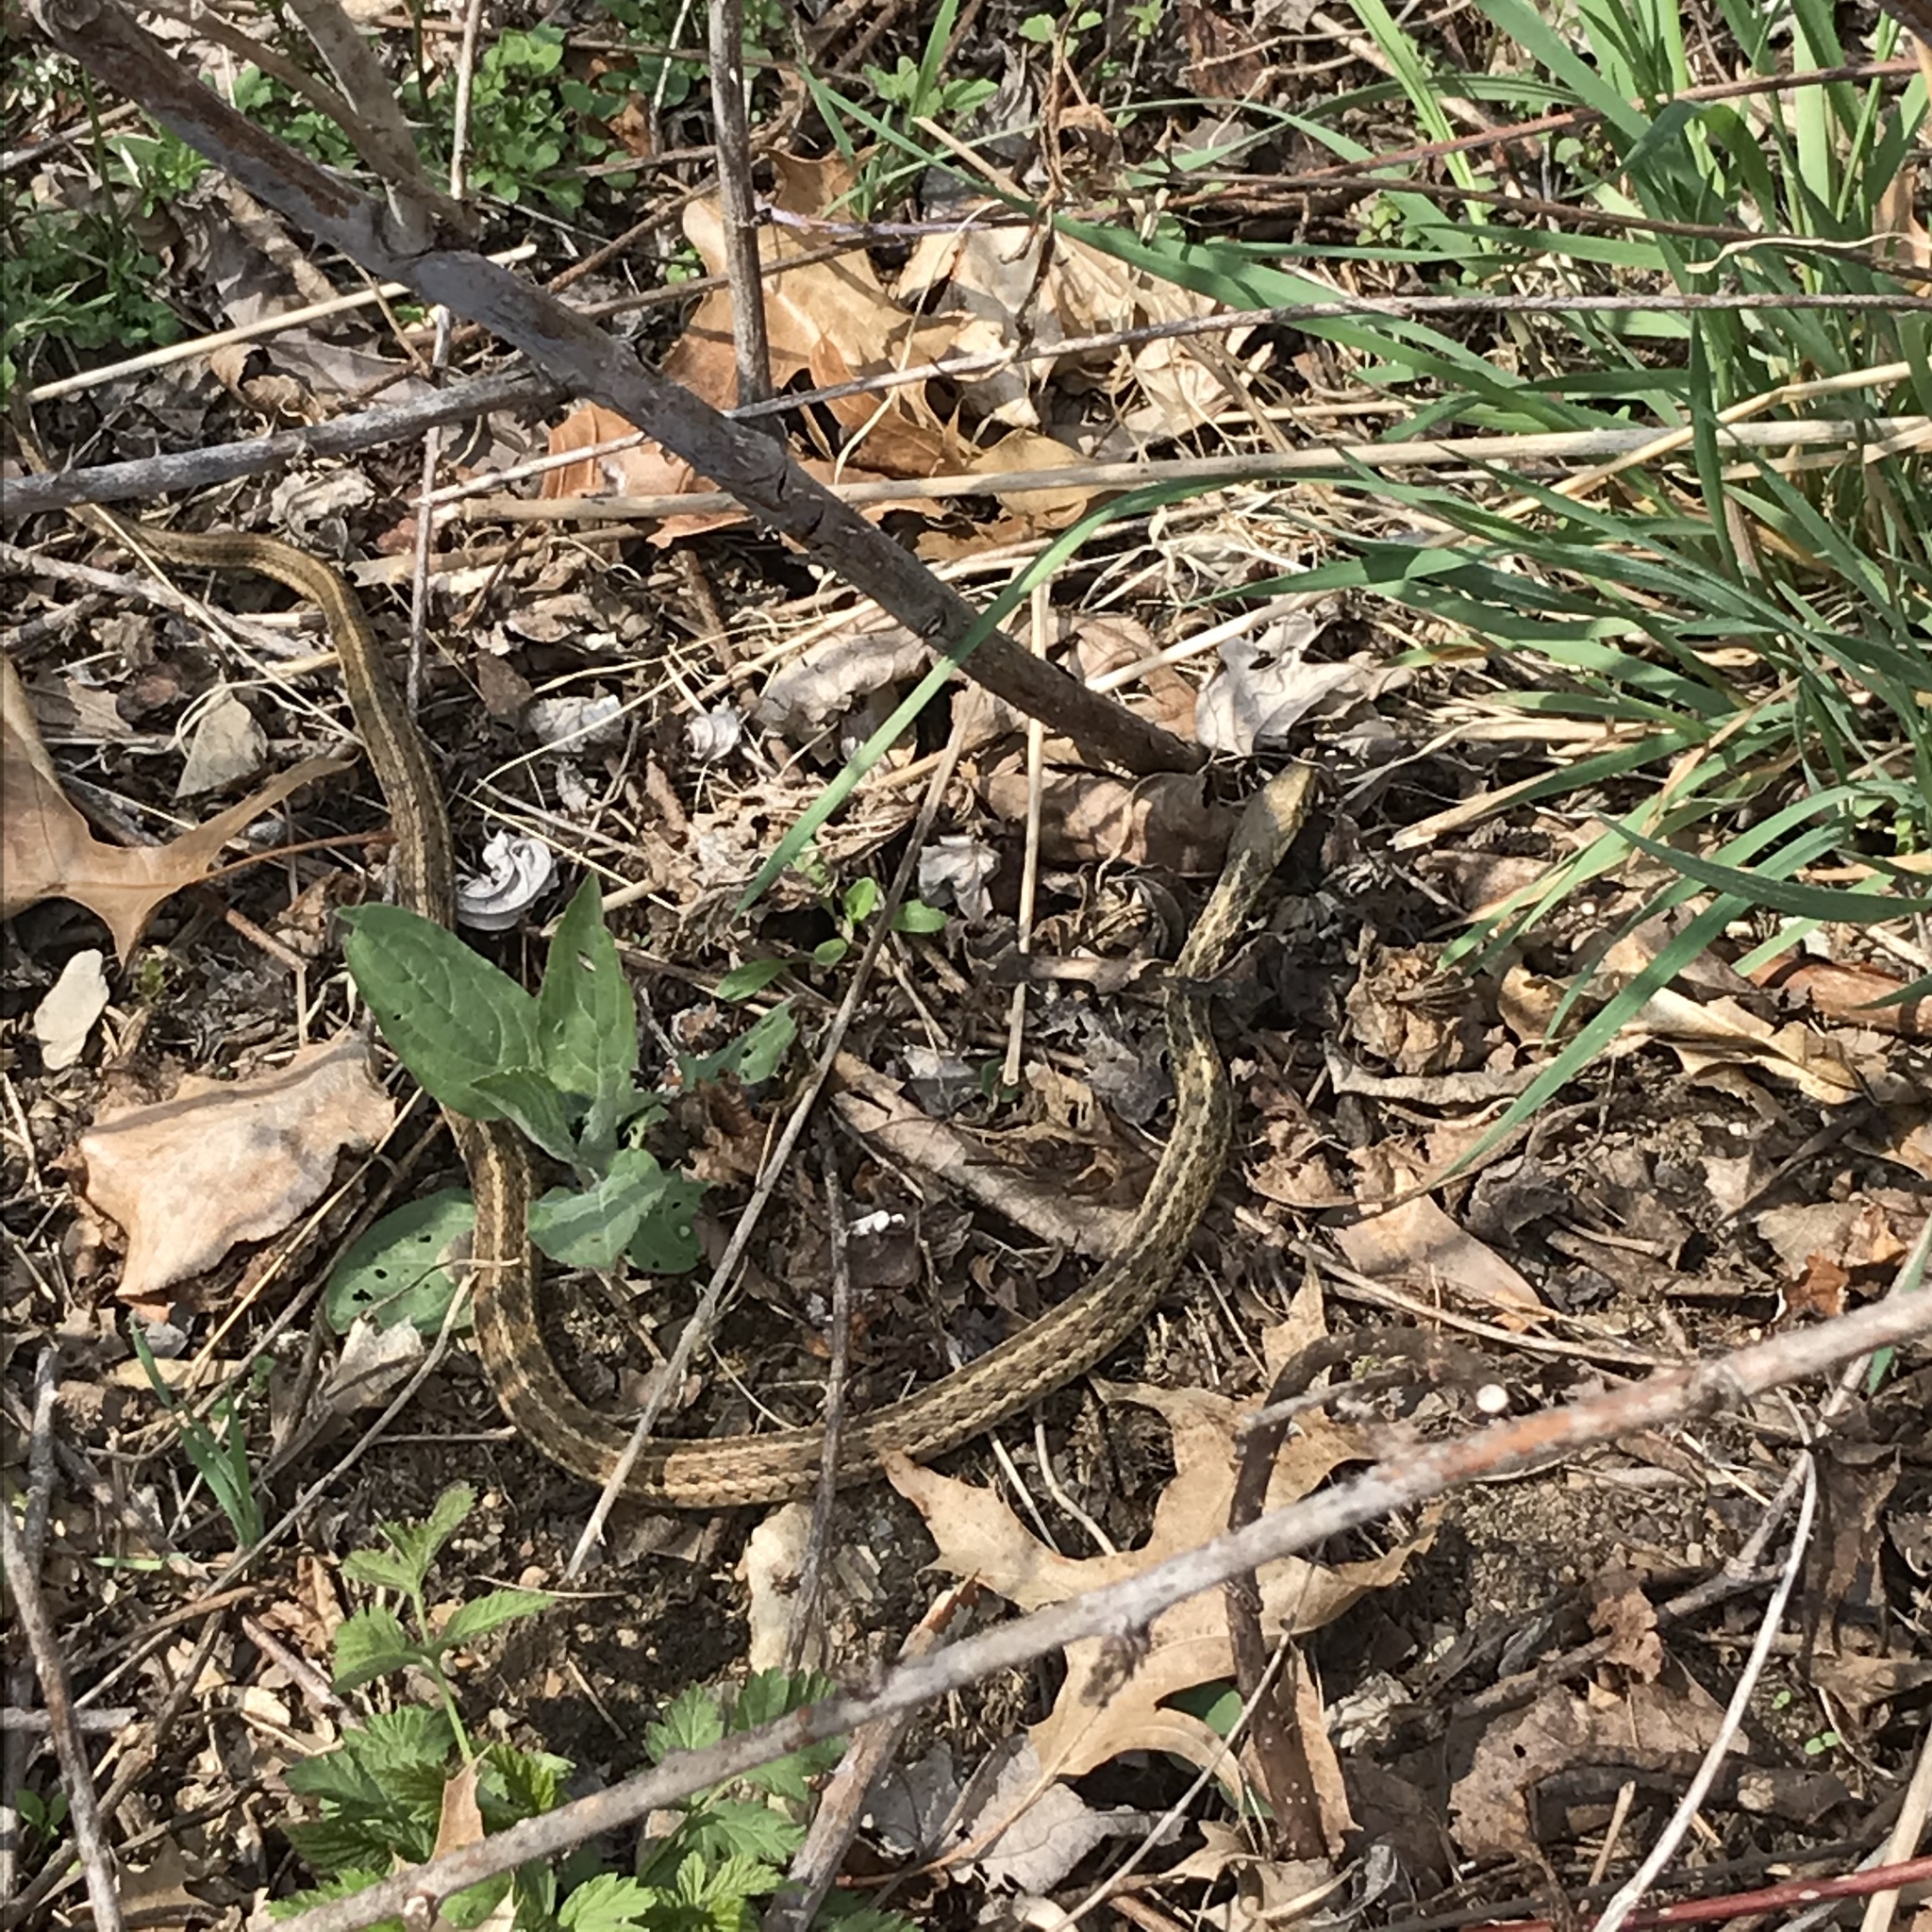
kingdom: Animalia
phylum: Chordata
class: Squamata
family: Colubridae
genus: Thamnophis
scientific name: Thamnophis sirtalis
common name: Common garter snake
